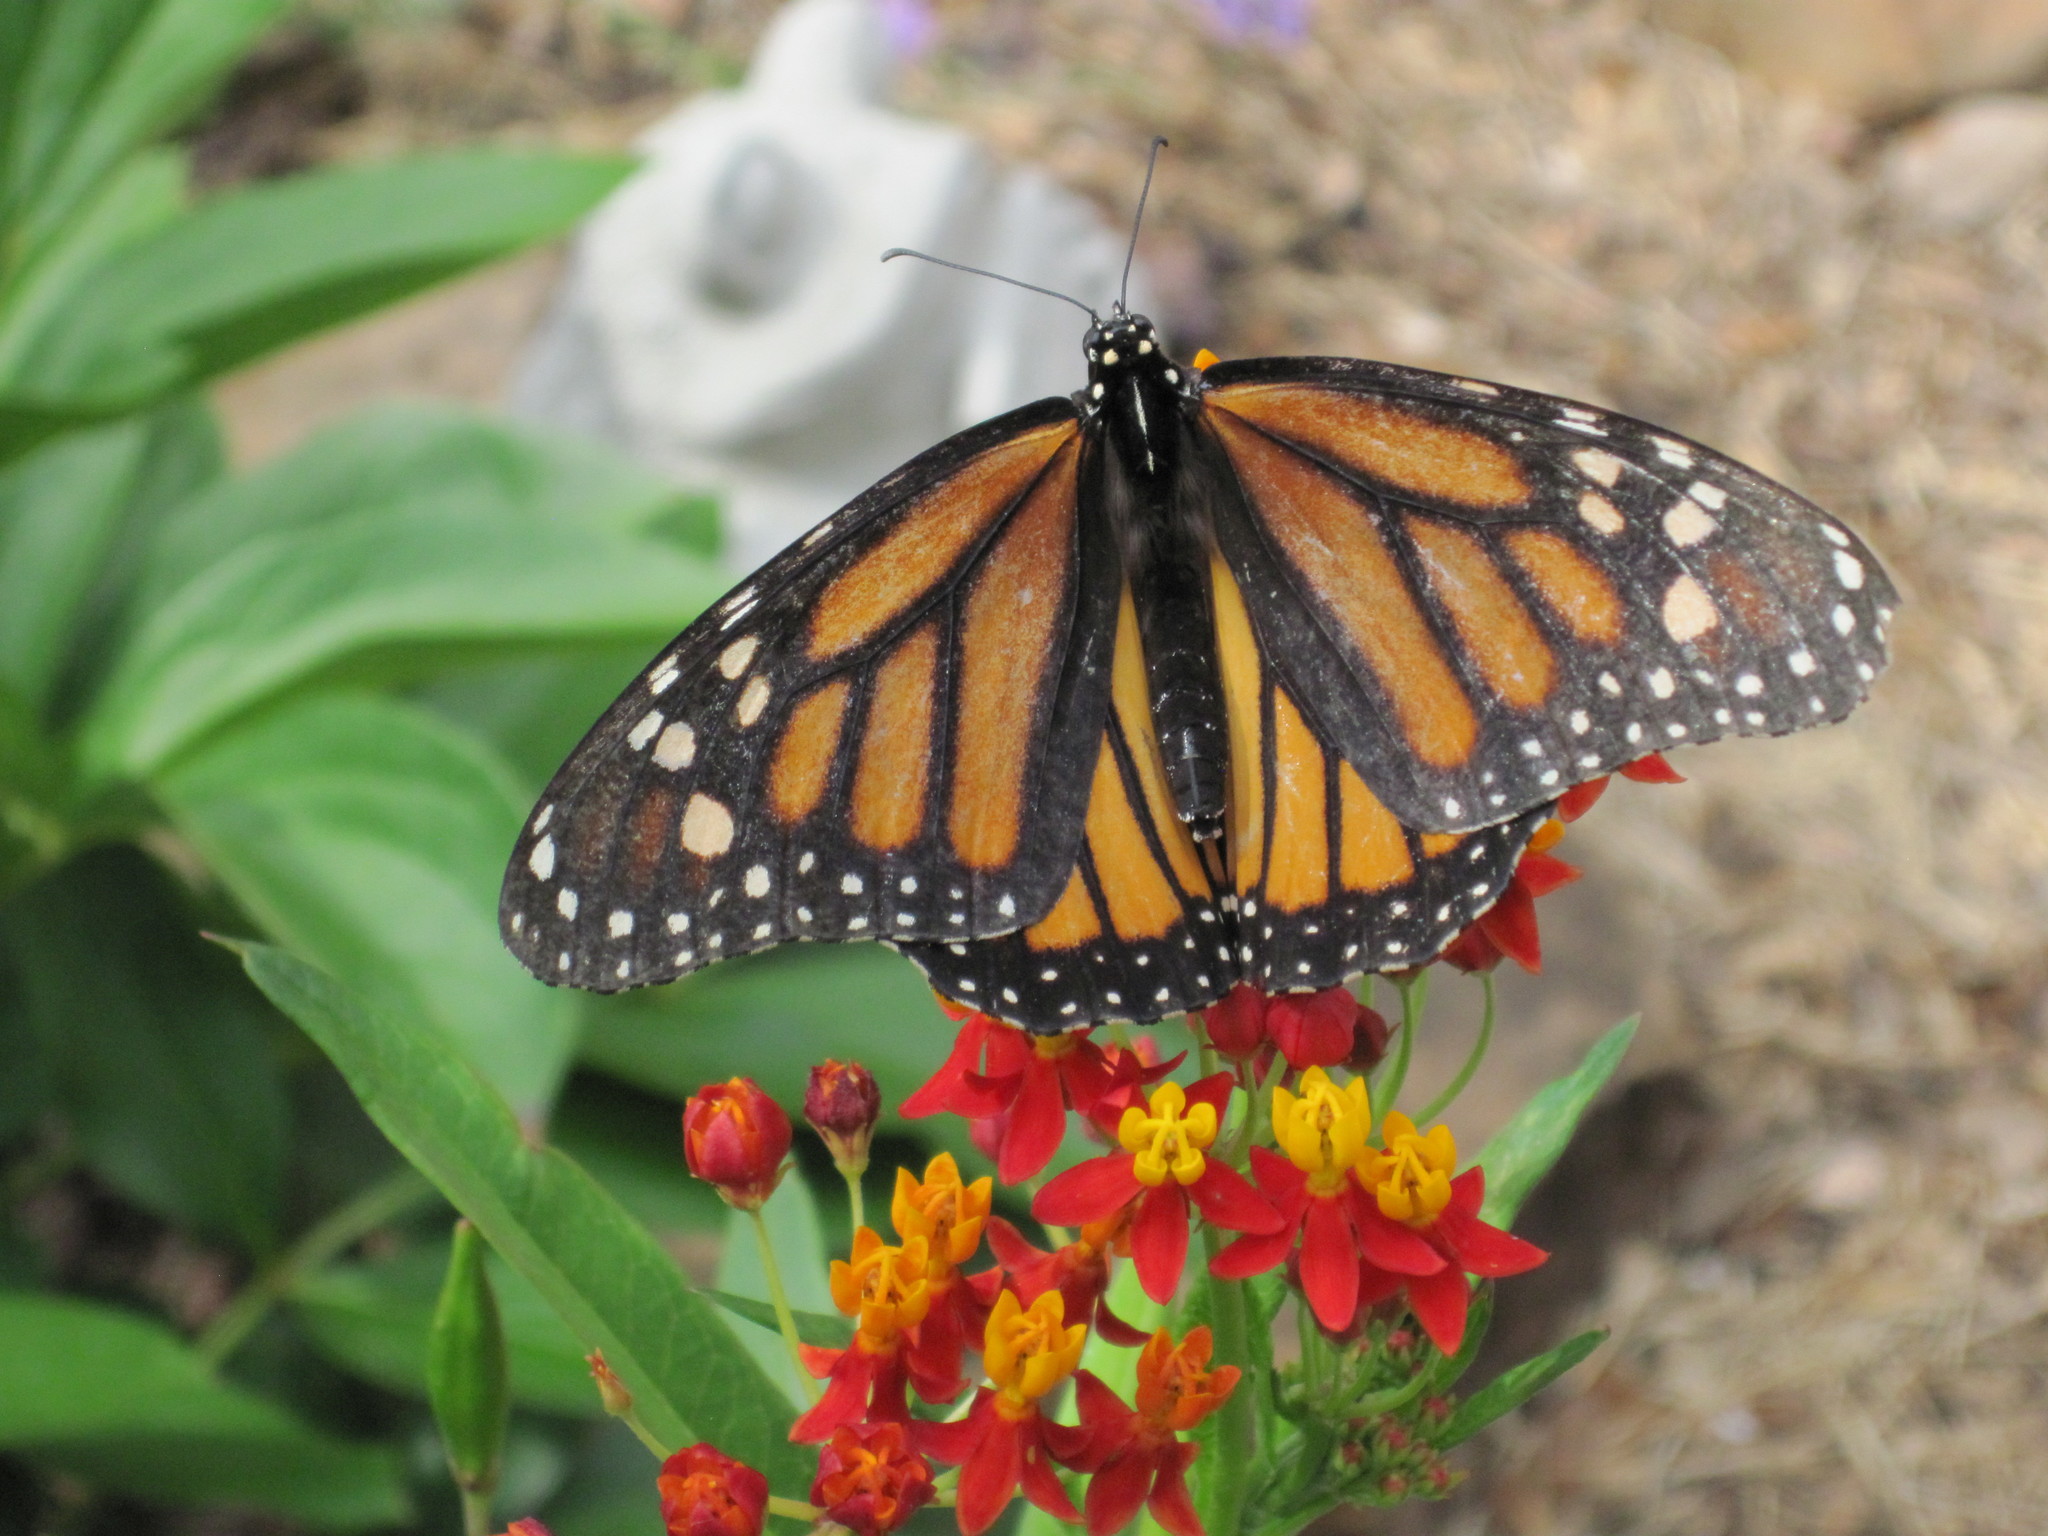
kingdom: Animalia
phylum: Arthropoda
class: Insecta
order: Lepidoptera
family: Nymphalidae
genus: Danaus
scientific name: Danaus plexippus
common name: Monarch
